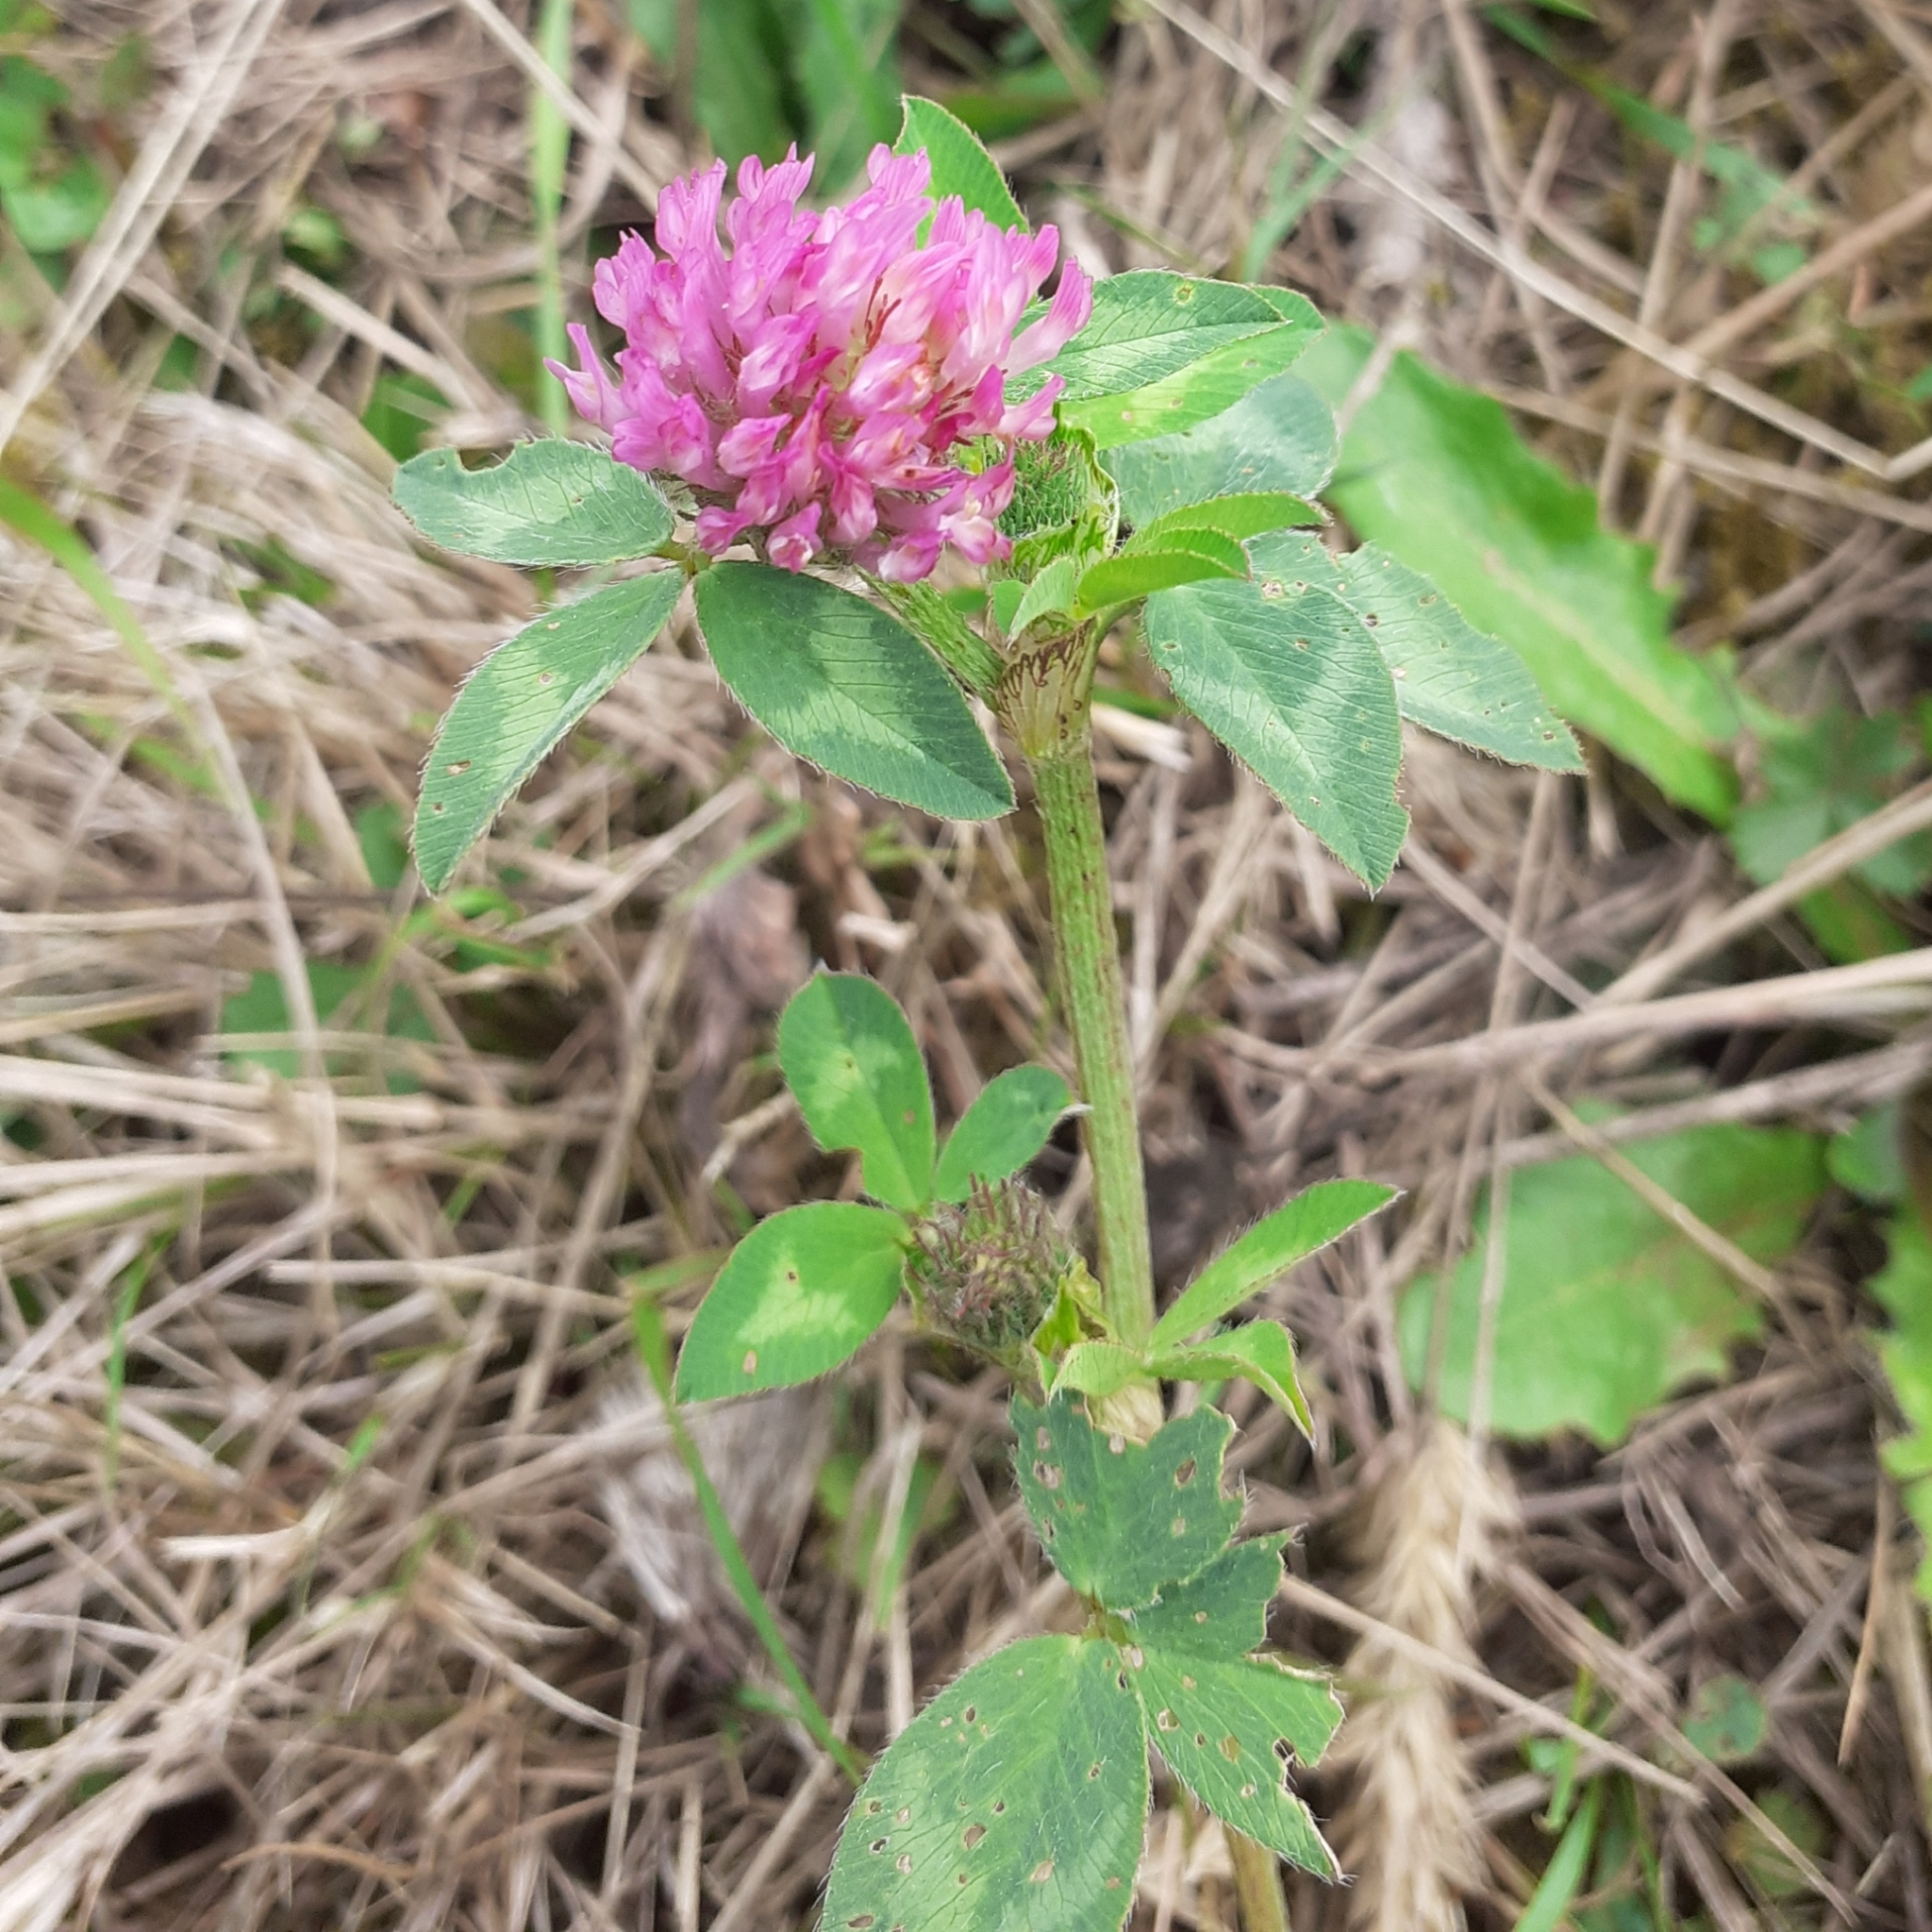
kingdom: Plantae
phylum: Tracheophyta
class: Magnoliopsida
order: Fabales
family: Fabaceae
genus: Trifolium
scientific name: Trifolium pratense
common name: Red clover
